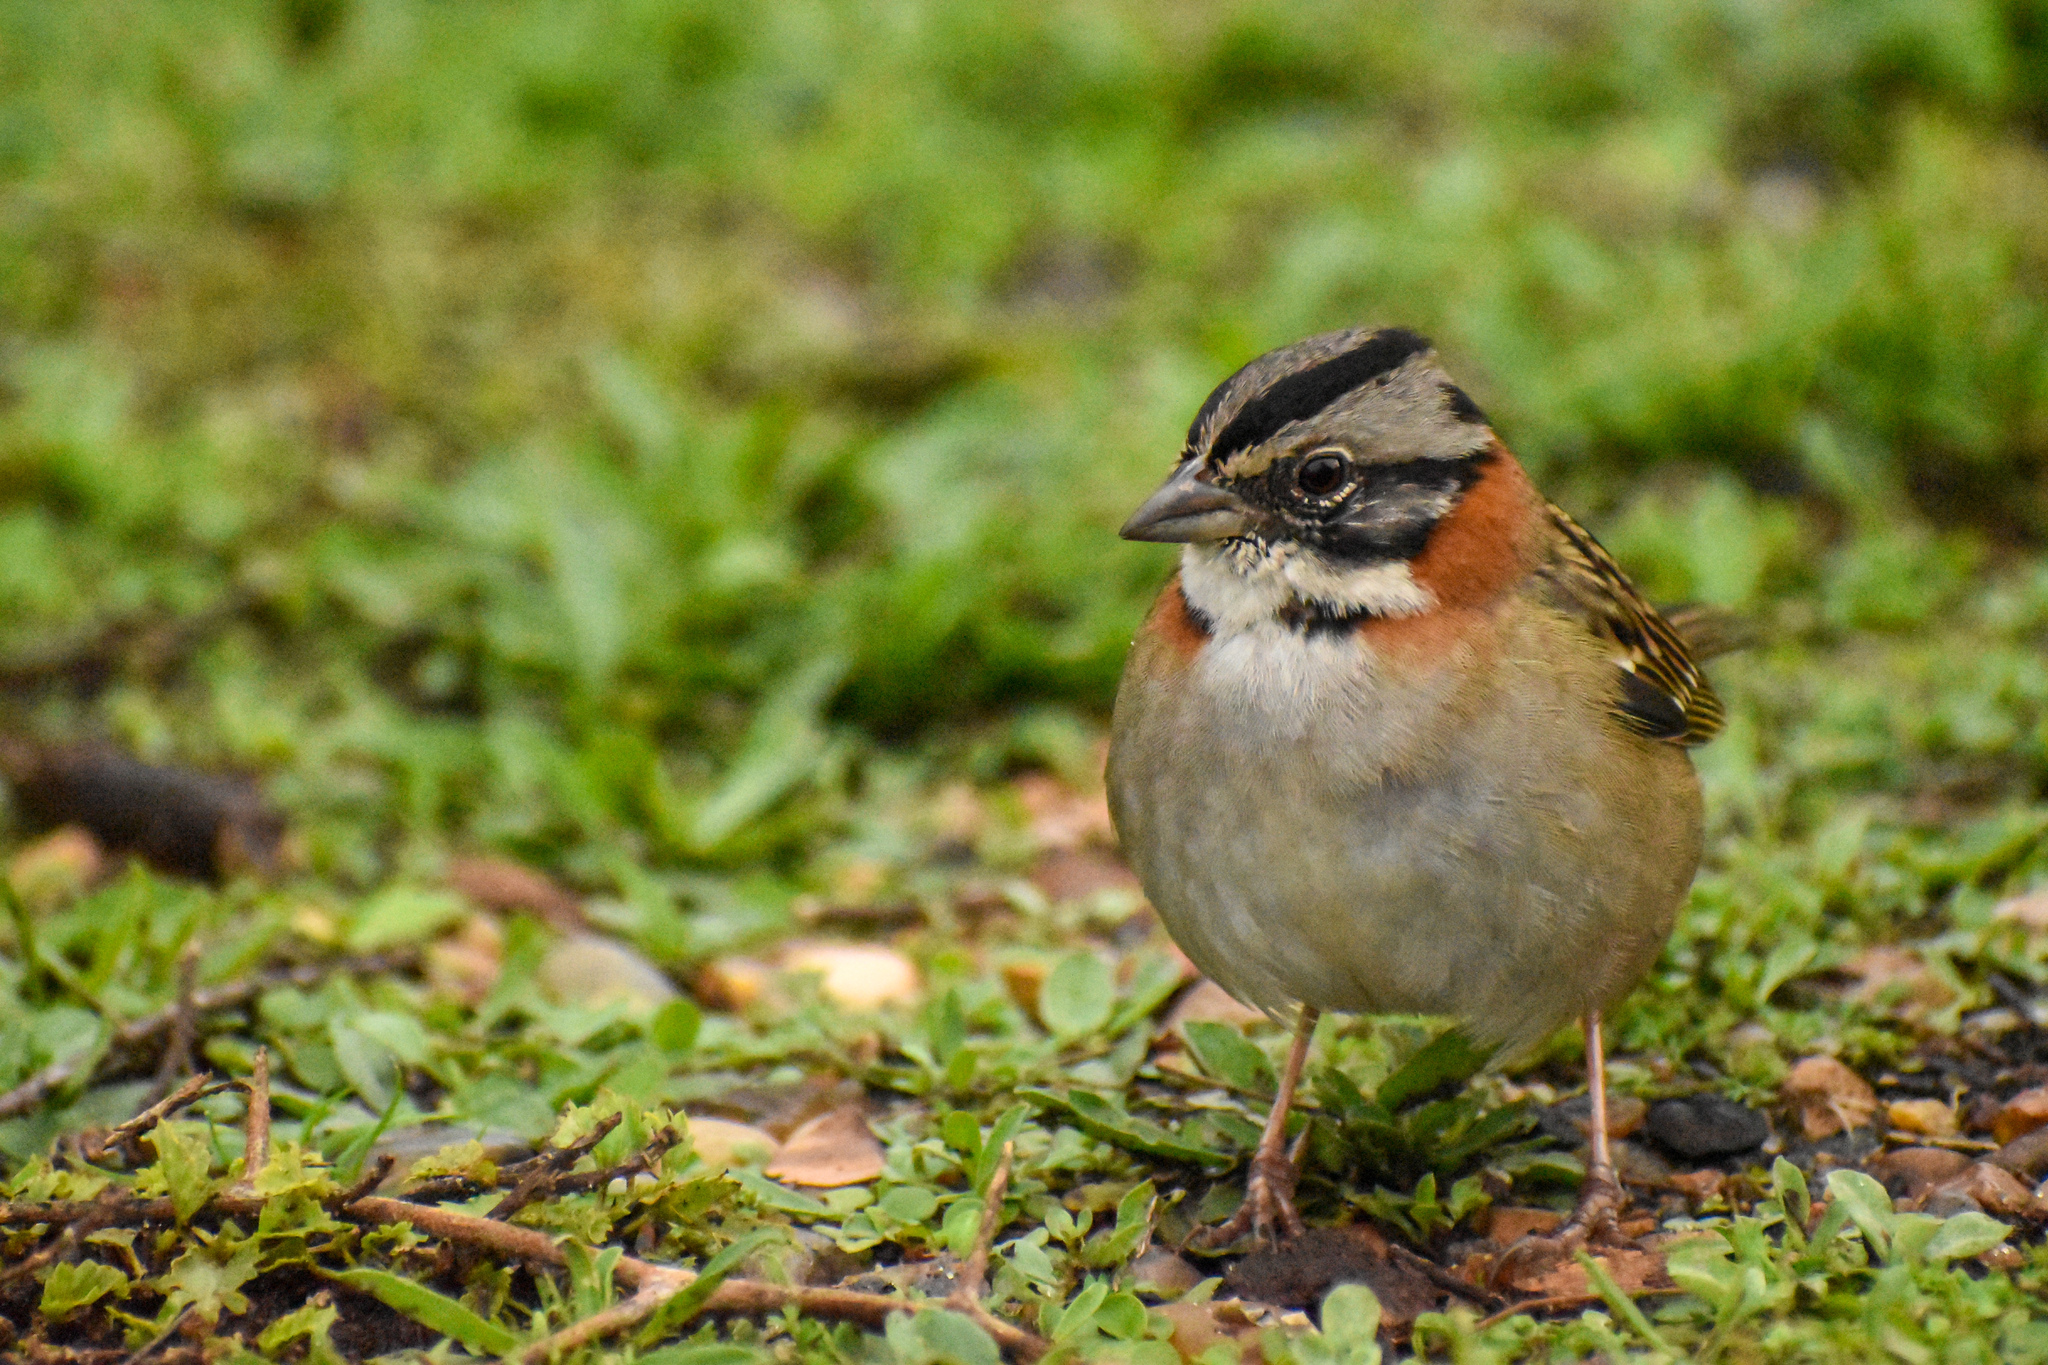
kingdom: Animalia
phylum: Chordata
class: Aves
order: Passeriformes
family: Passerellidae
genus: Zonotrichia
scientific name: Zonotrichia capensis
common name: Rufous-collared sparrow
